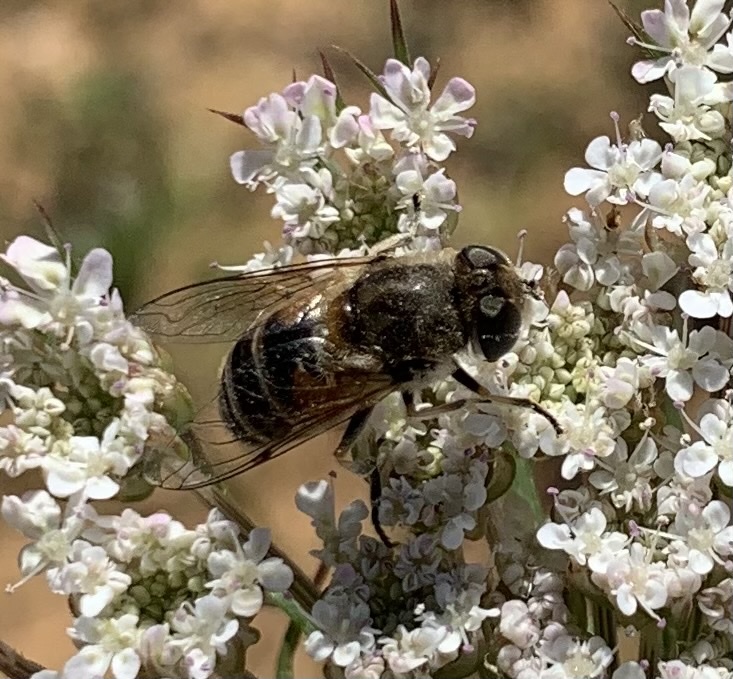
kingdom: Animalia
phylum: Arthropoda
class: Insecta
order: Diptera
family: Syrphidae
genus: Eristalis
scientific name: Eristalis arbustorum
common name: Hover fly
